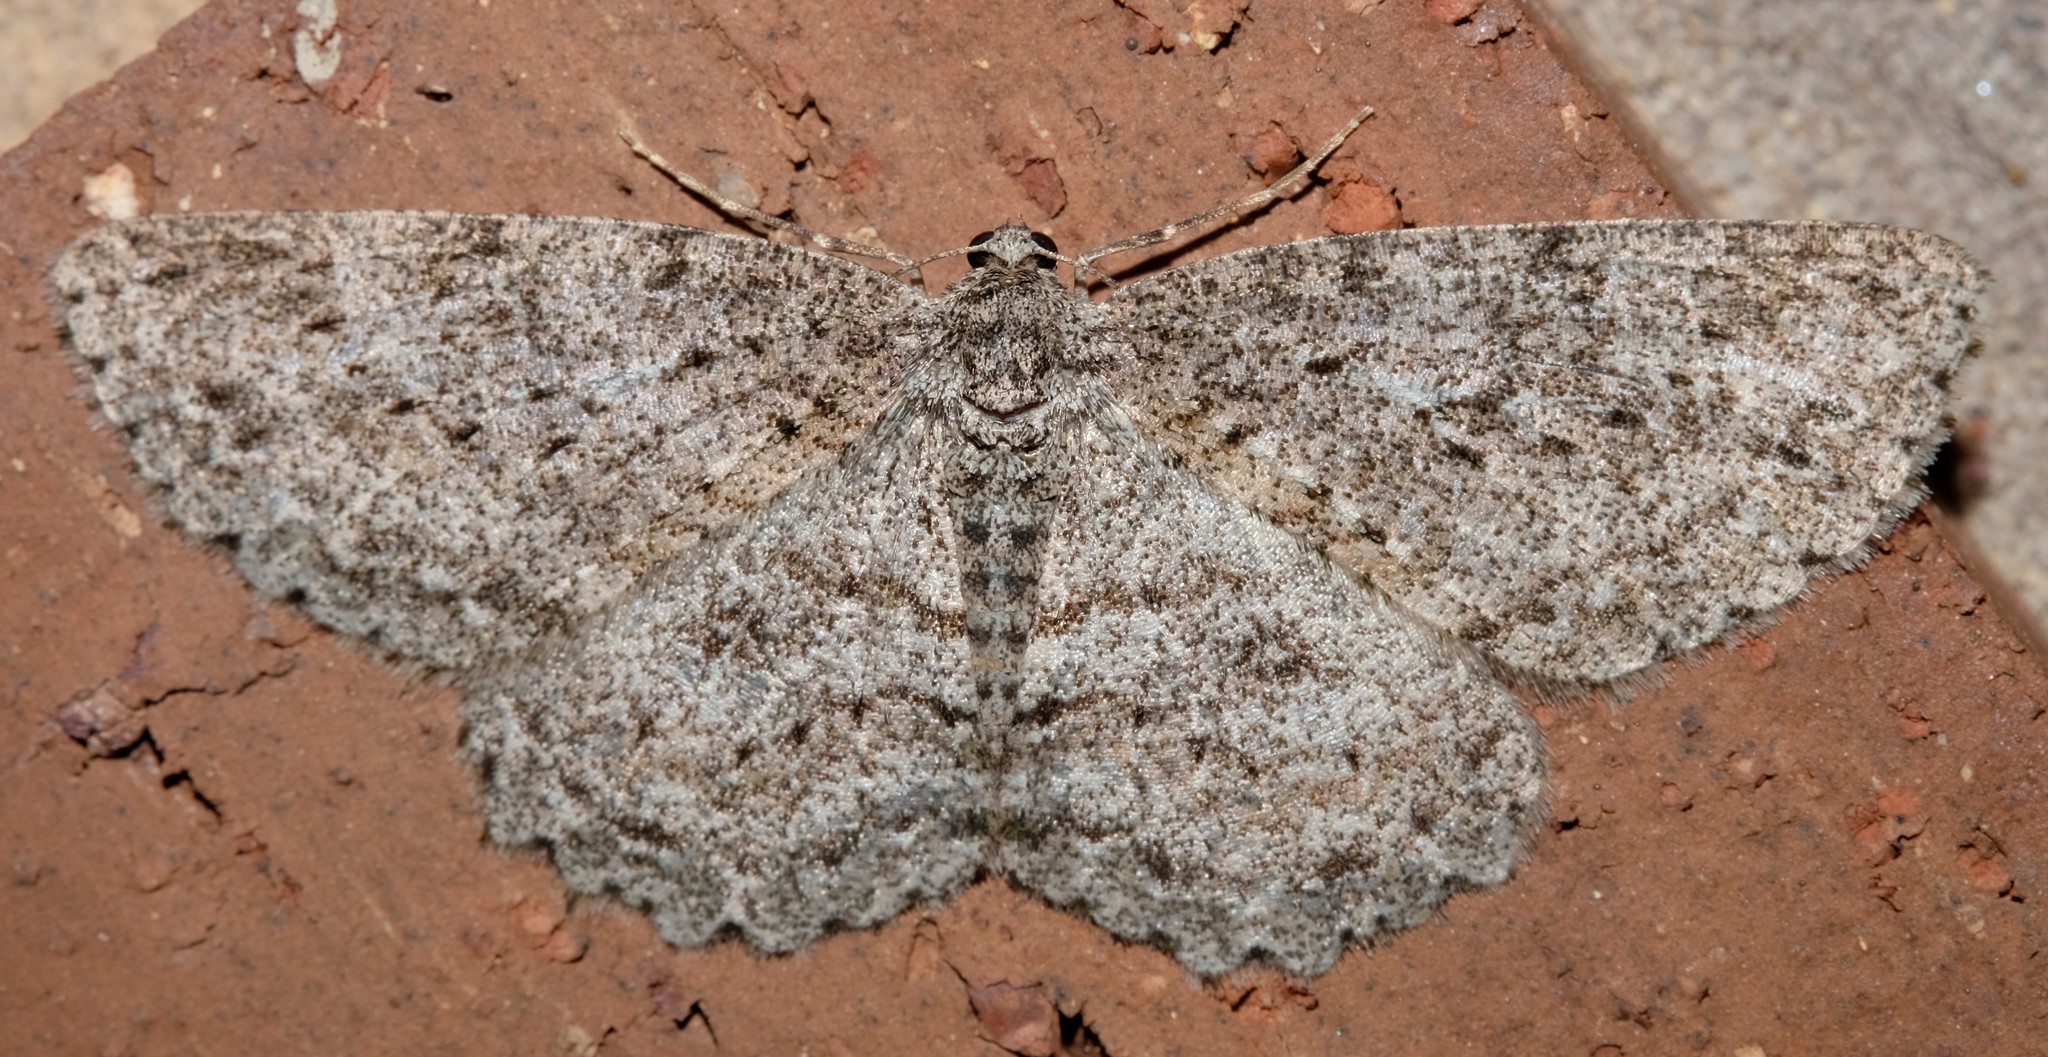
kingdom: Animalia
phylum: Arthropoda
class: Insecta
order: Lepidoptera
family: Geometridae
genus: Ectropis
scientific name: Ectropis fractaria
